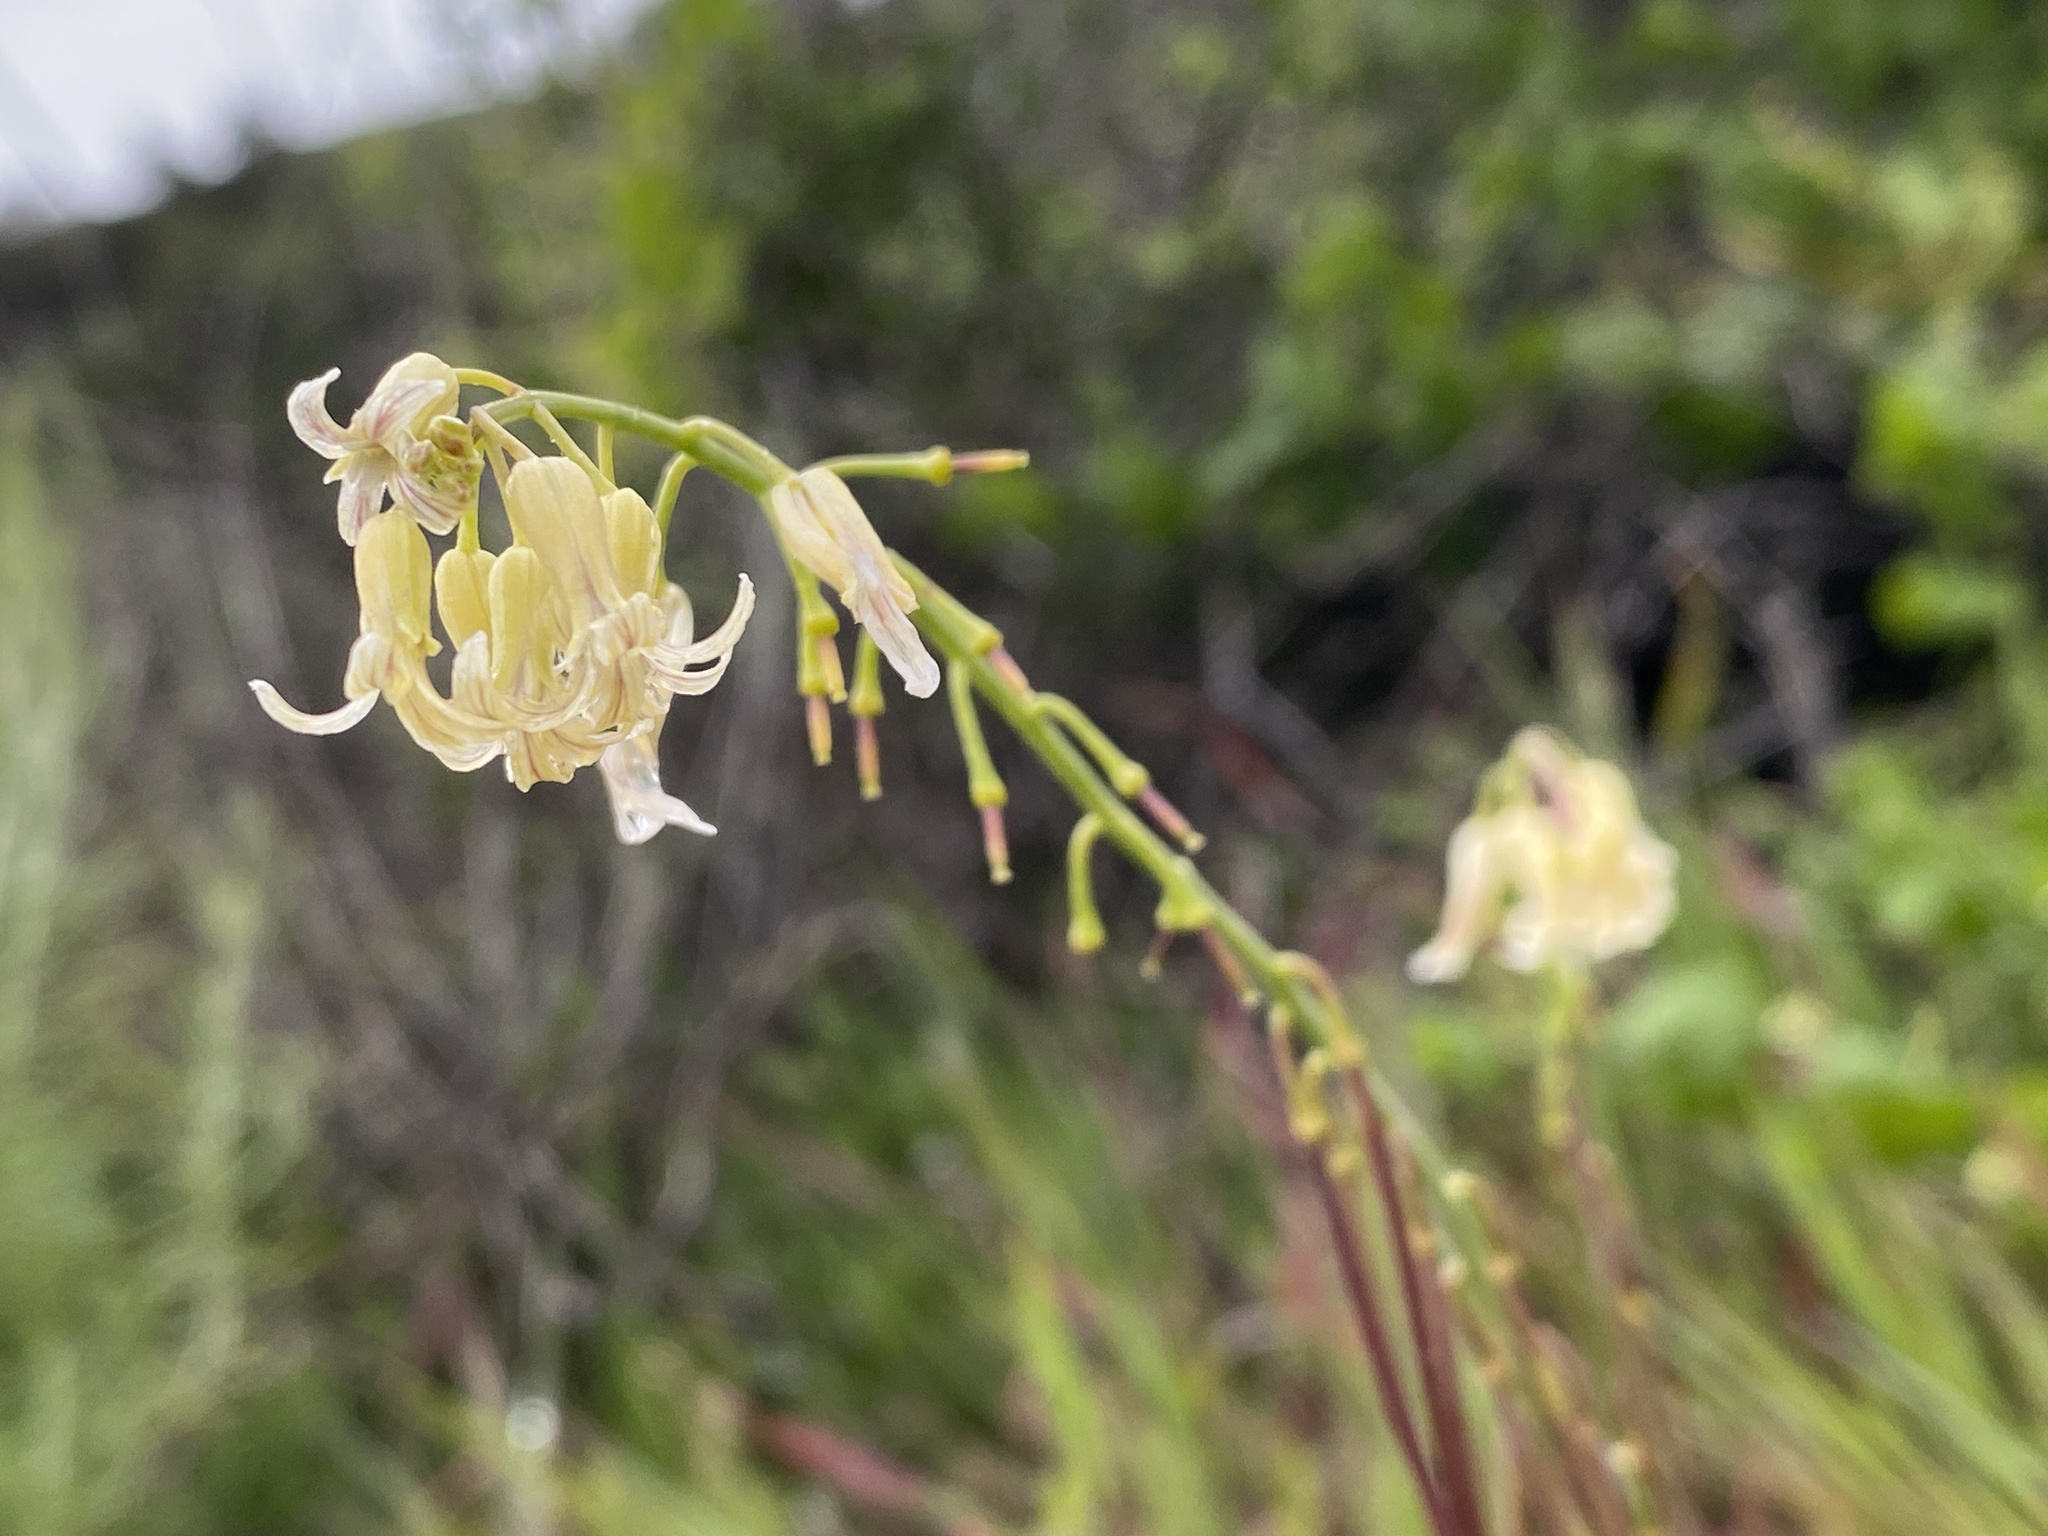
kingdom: Plantae
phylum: Tracheophyta
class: Magnoliopsida
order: Brassicales
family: Brassicaceae
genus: Streptanthus
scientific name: Streptanthus heterophyllus
